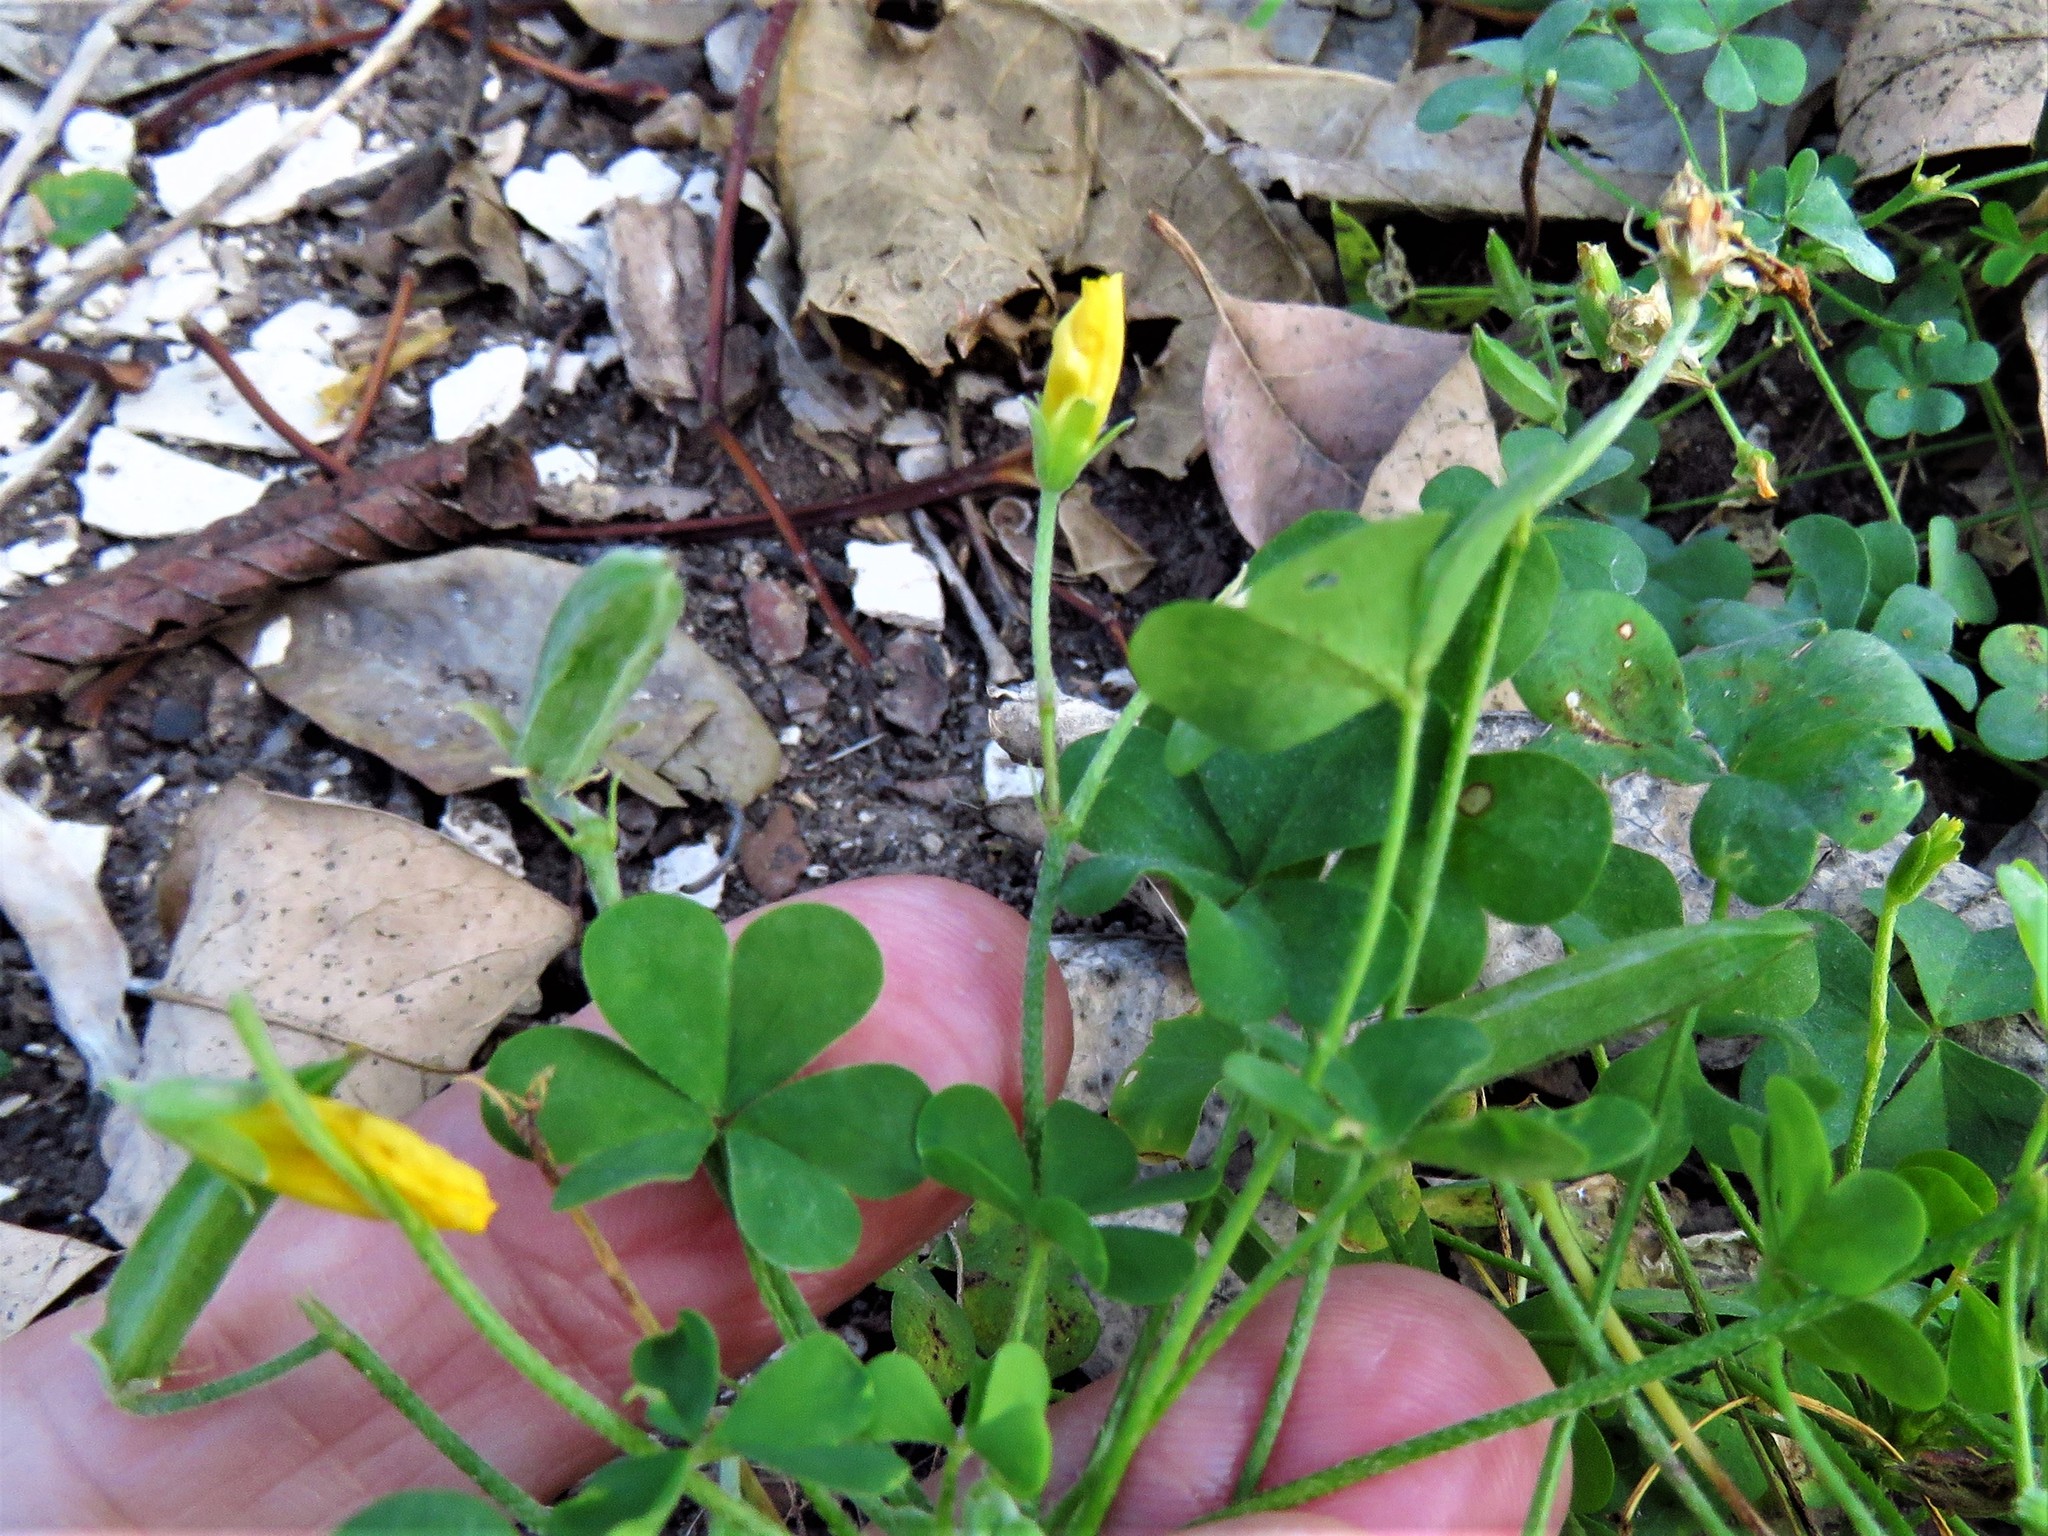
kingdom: Plantae
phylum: Tracheophyta
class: Magnoliopsida
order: Oxalidales
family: Oxalidaceae
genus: Oxalis
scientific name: Oxalis dillenii
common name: Sussex yellow-sorrel
